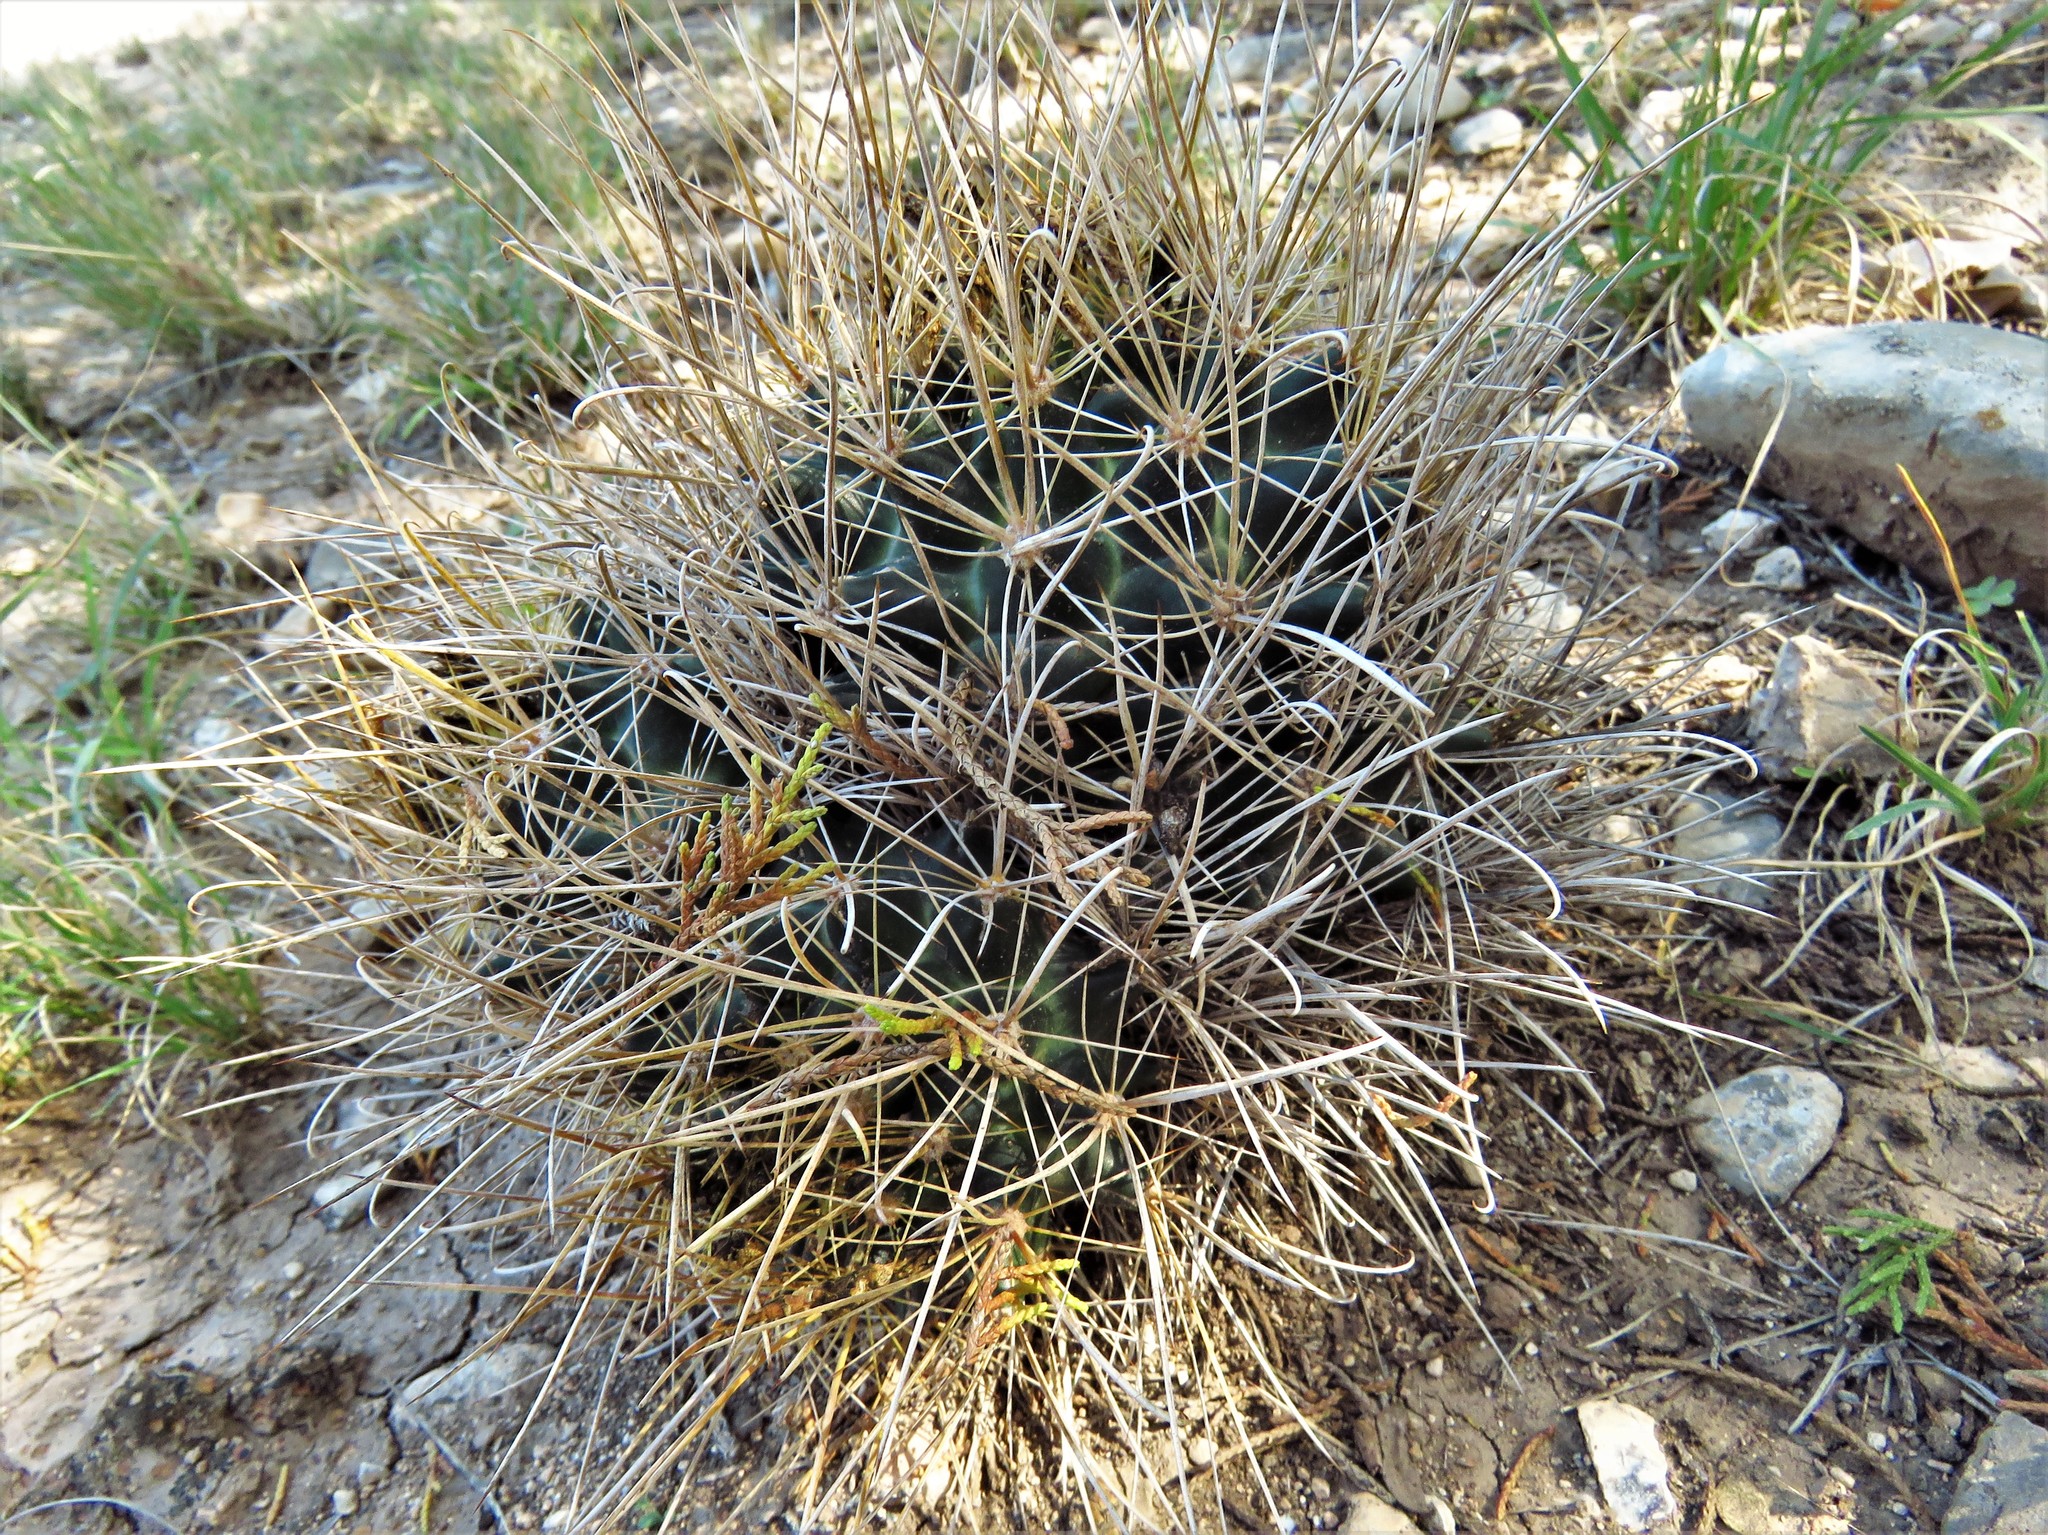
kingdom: Plantae
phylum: Tracheophyta
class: Magnoliopsida
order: Caryophyllales
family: Cactaceae
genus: Sclerocactus
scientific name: Sclerocactus brevihamatus
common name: Engelmann's fishhook cactus
